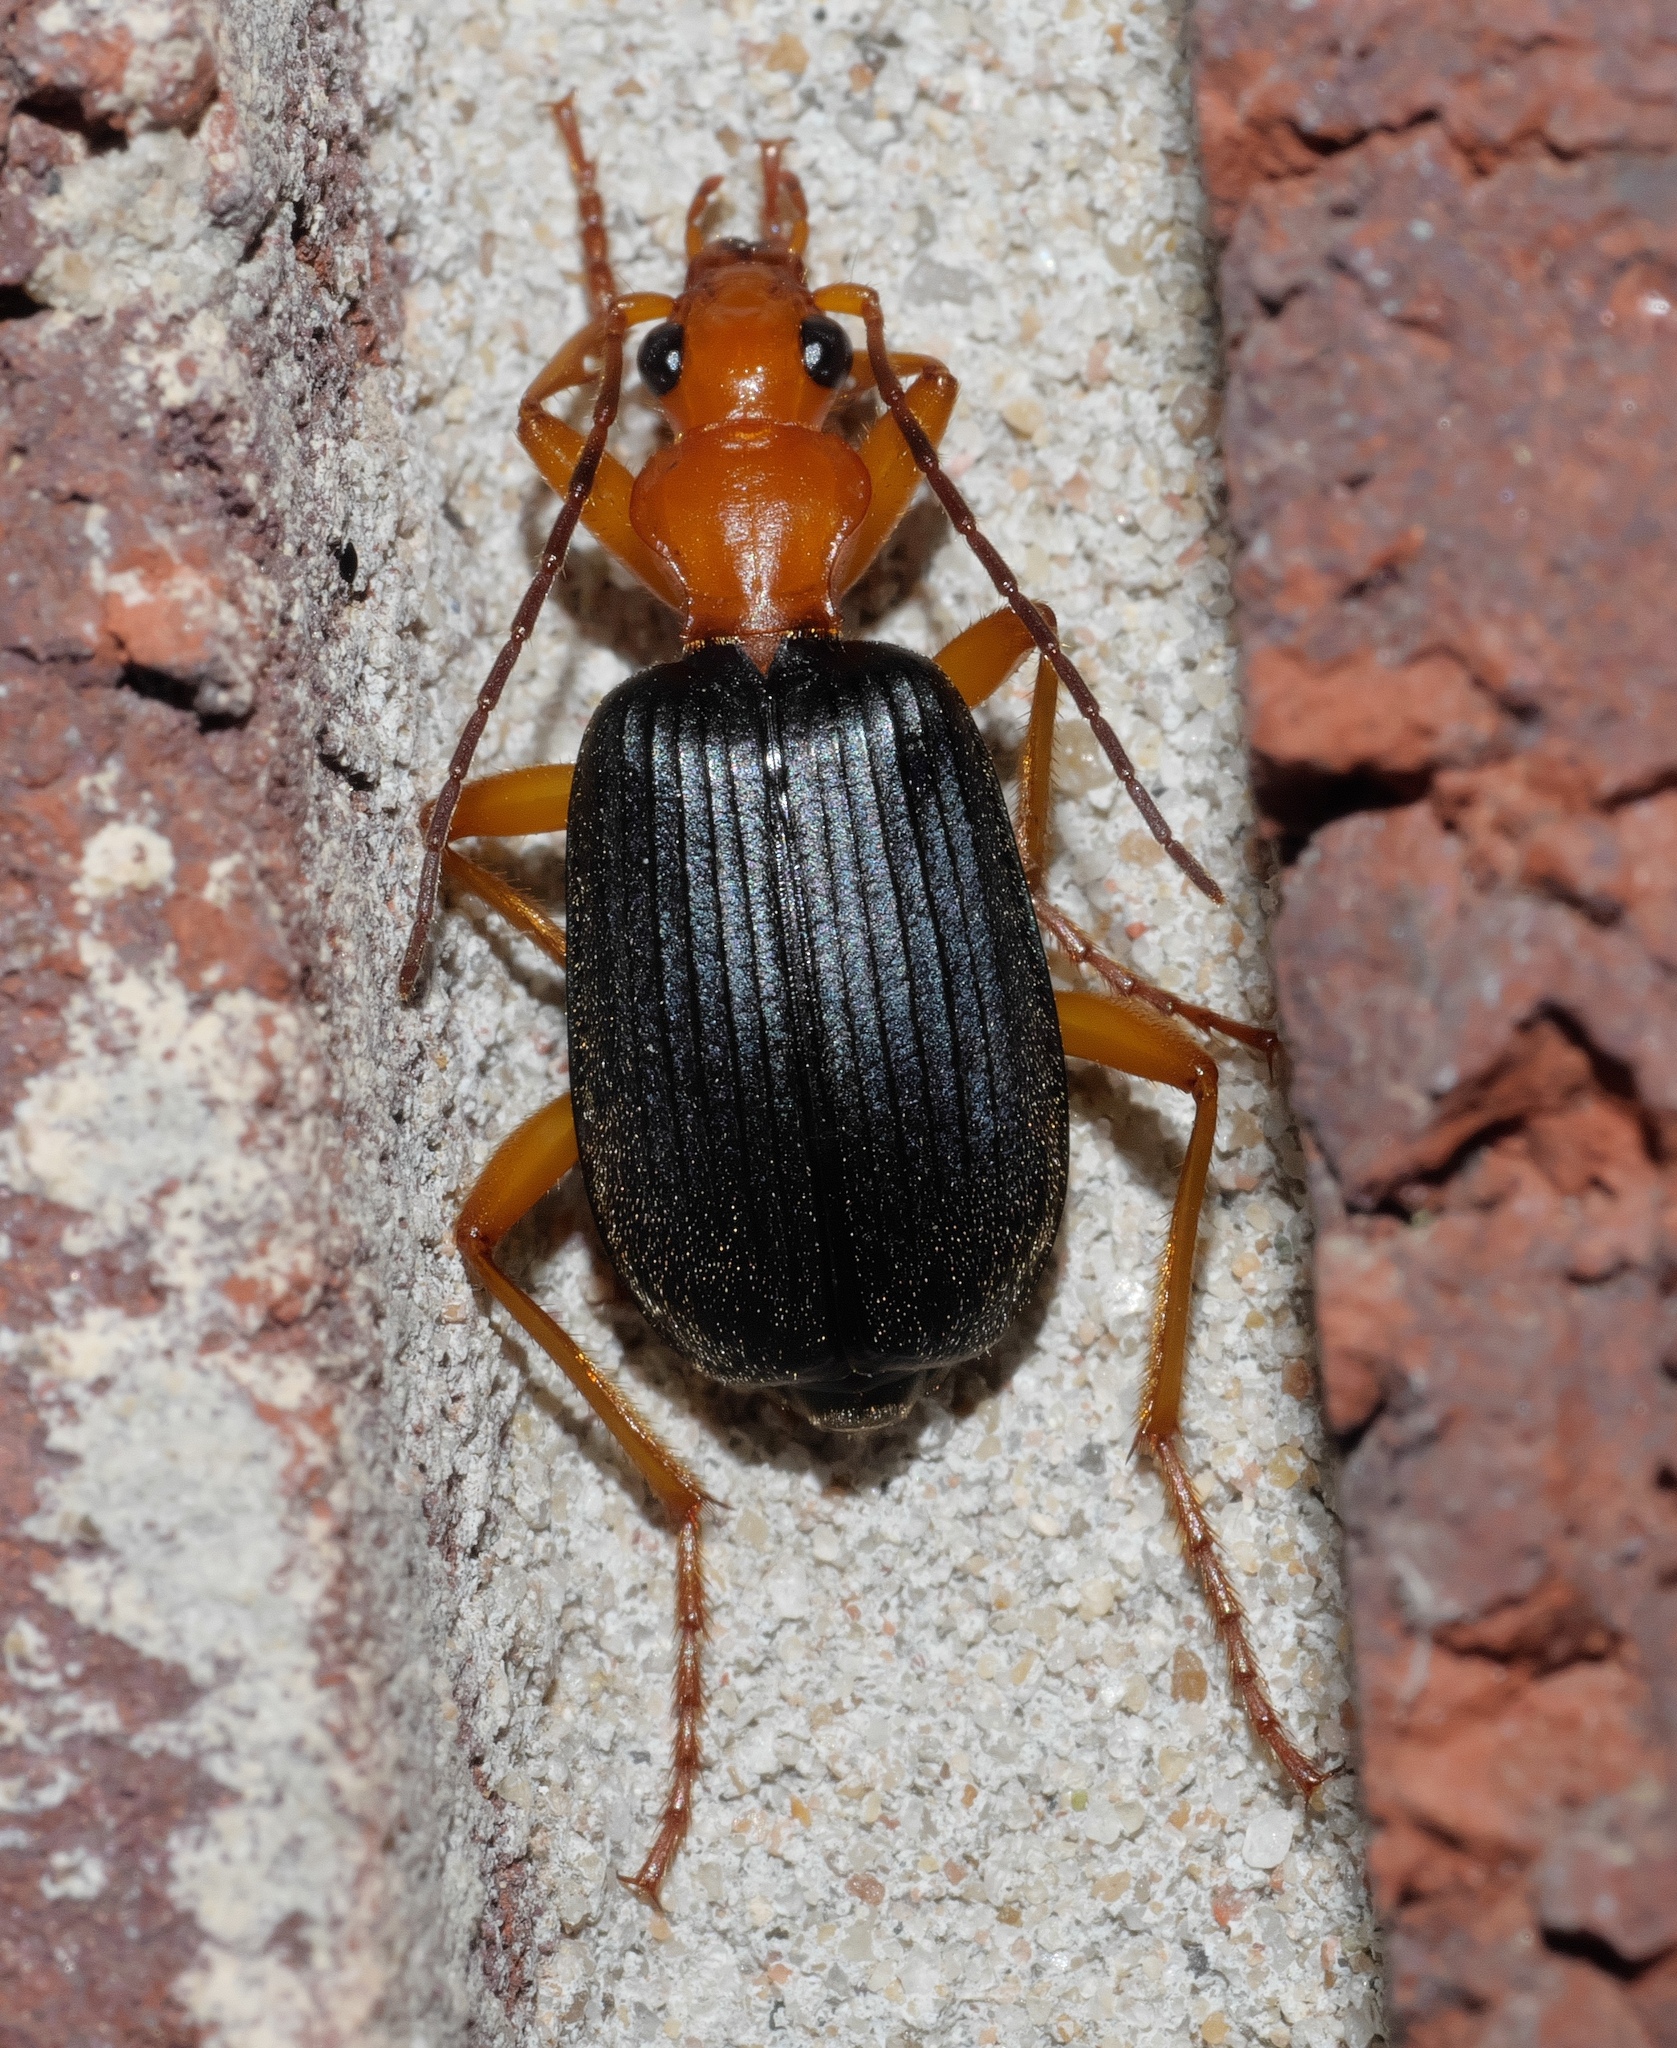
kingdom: Animalia
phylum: Arthropoda
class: Insecta
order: Coleoptera
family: Carabidae
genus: Brachinus
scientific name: Brachinus tenuicollis
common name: Narrow-necked little bombardier beetle
